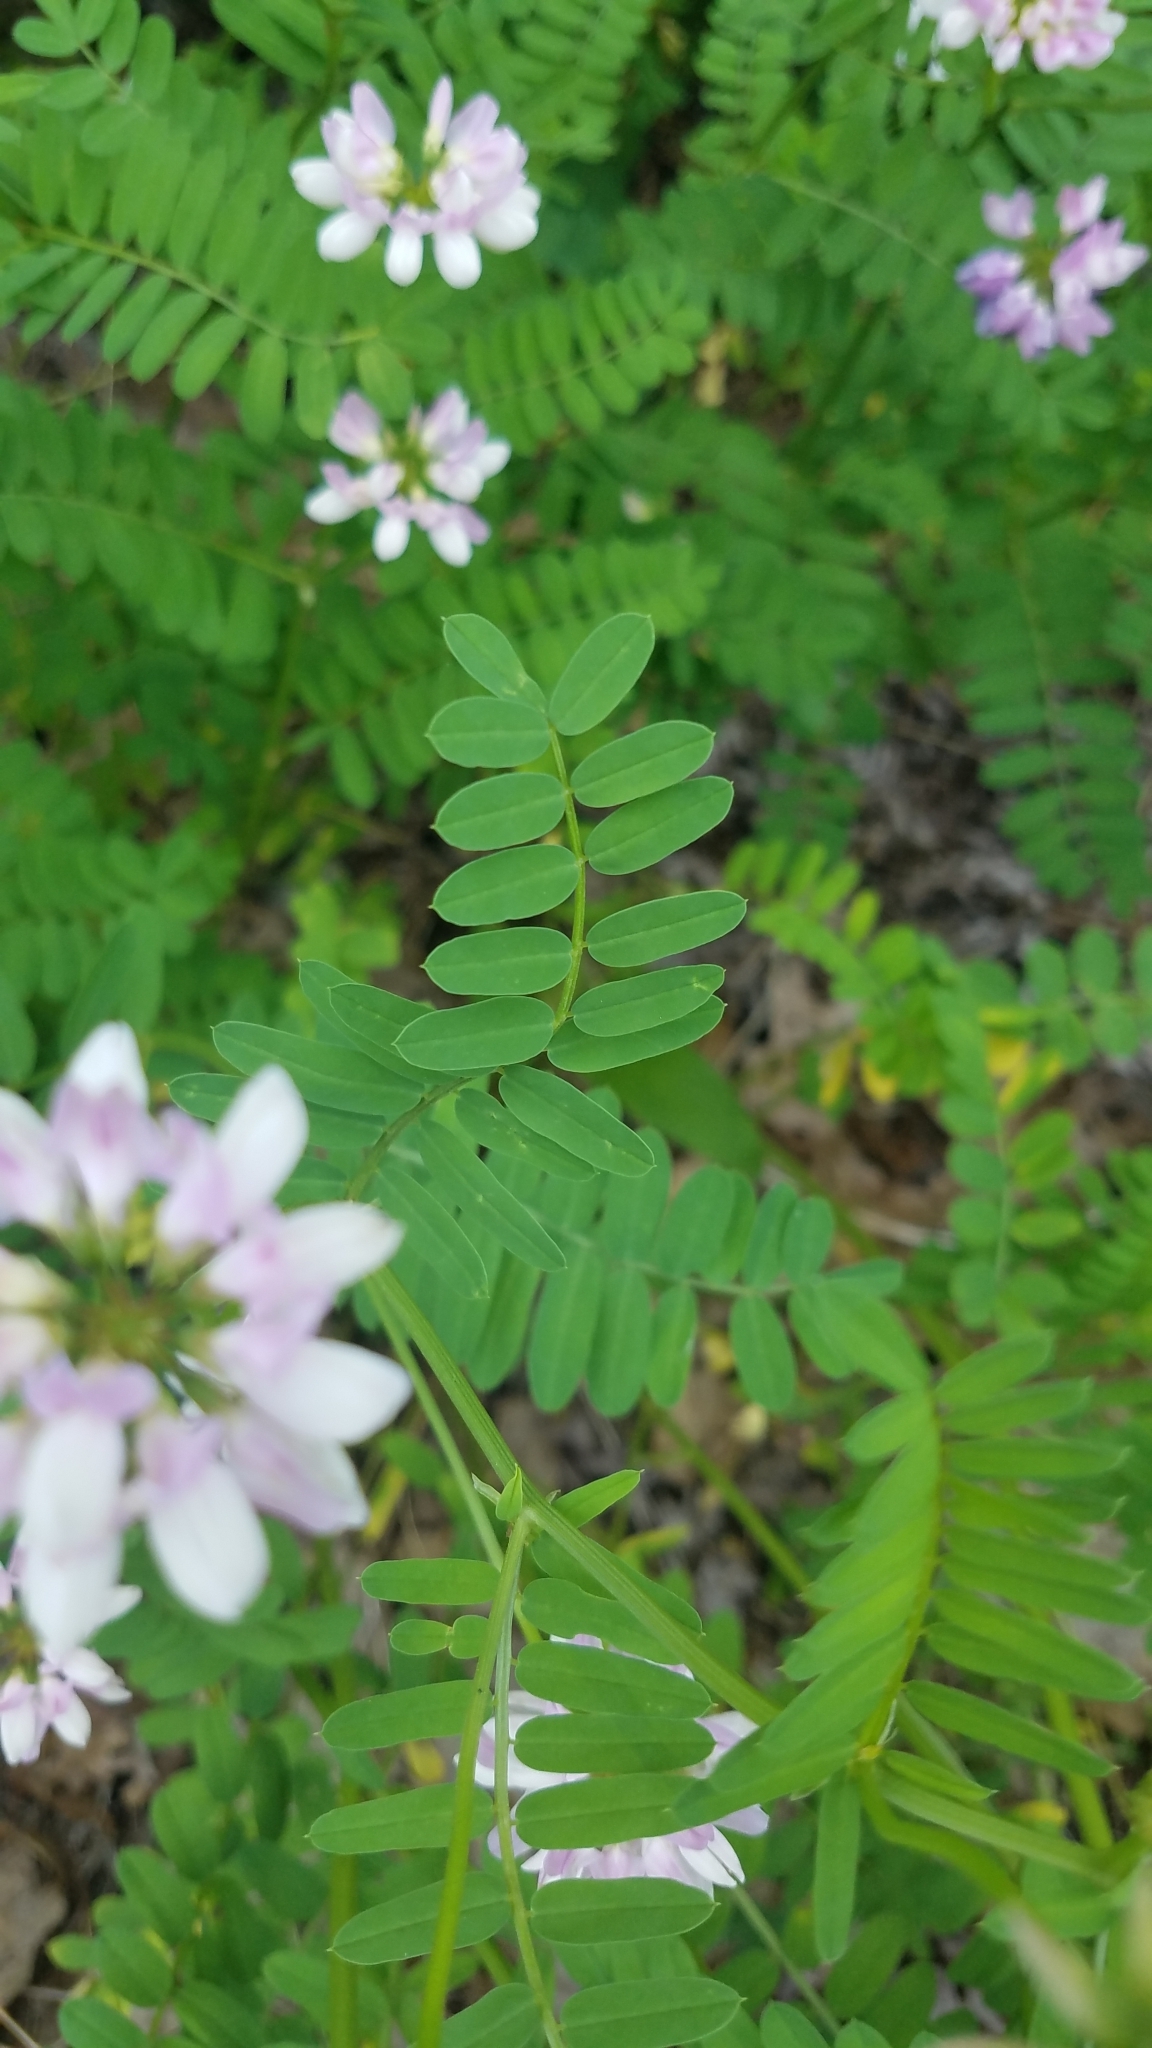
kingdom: Plantae
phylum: Tracheophyta
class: Magnoliopsida
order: Fabales
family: Fabaceae
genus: Coronilla
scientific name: Coronilla varia
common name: Crownvetch
